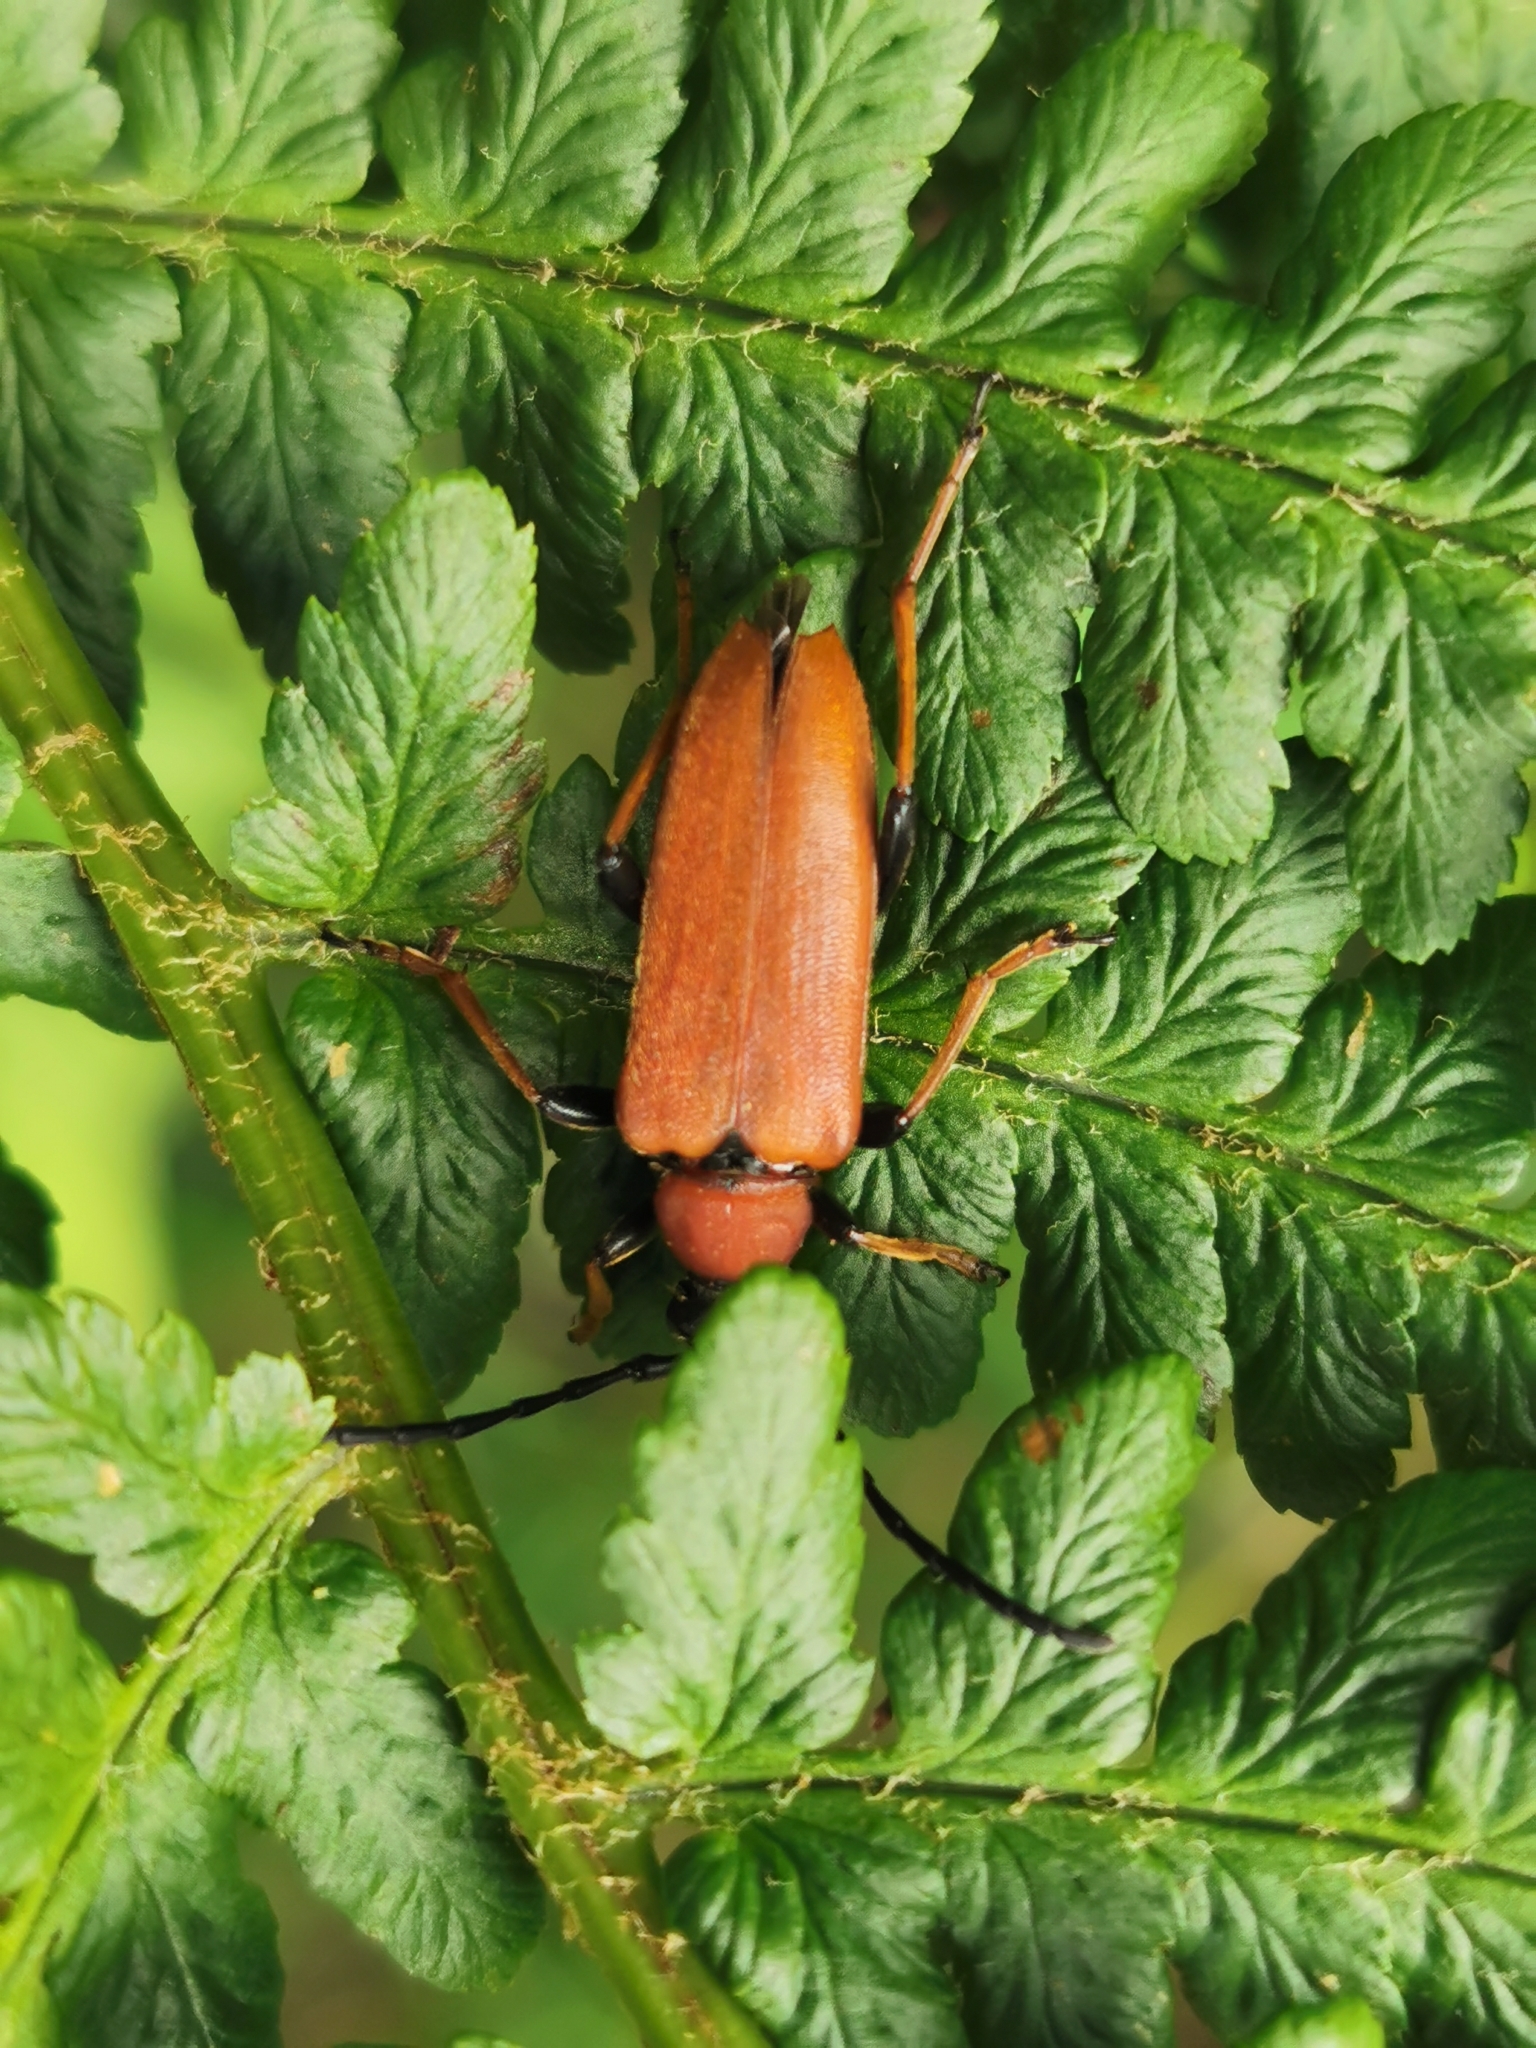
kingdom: Animalia
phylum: Arthropoda
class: Insecta
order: Coleoptera
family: Cerambycidae
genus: Stictoleptura
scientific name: Stictoleptura rubra
